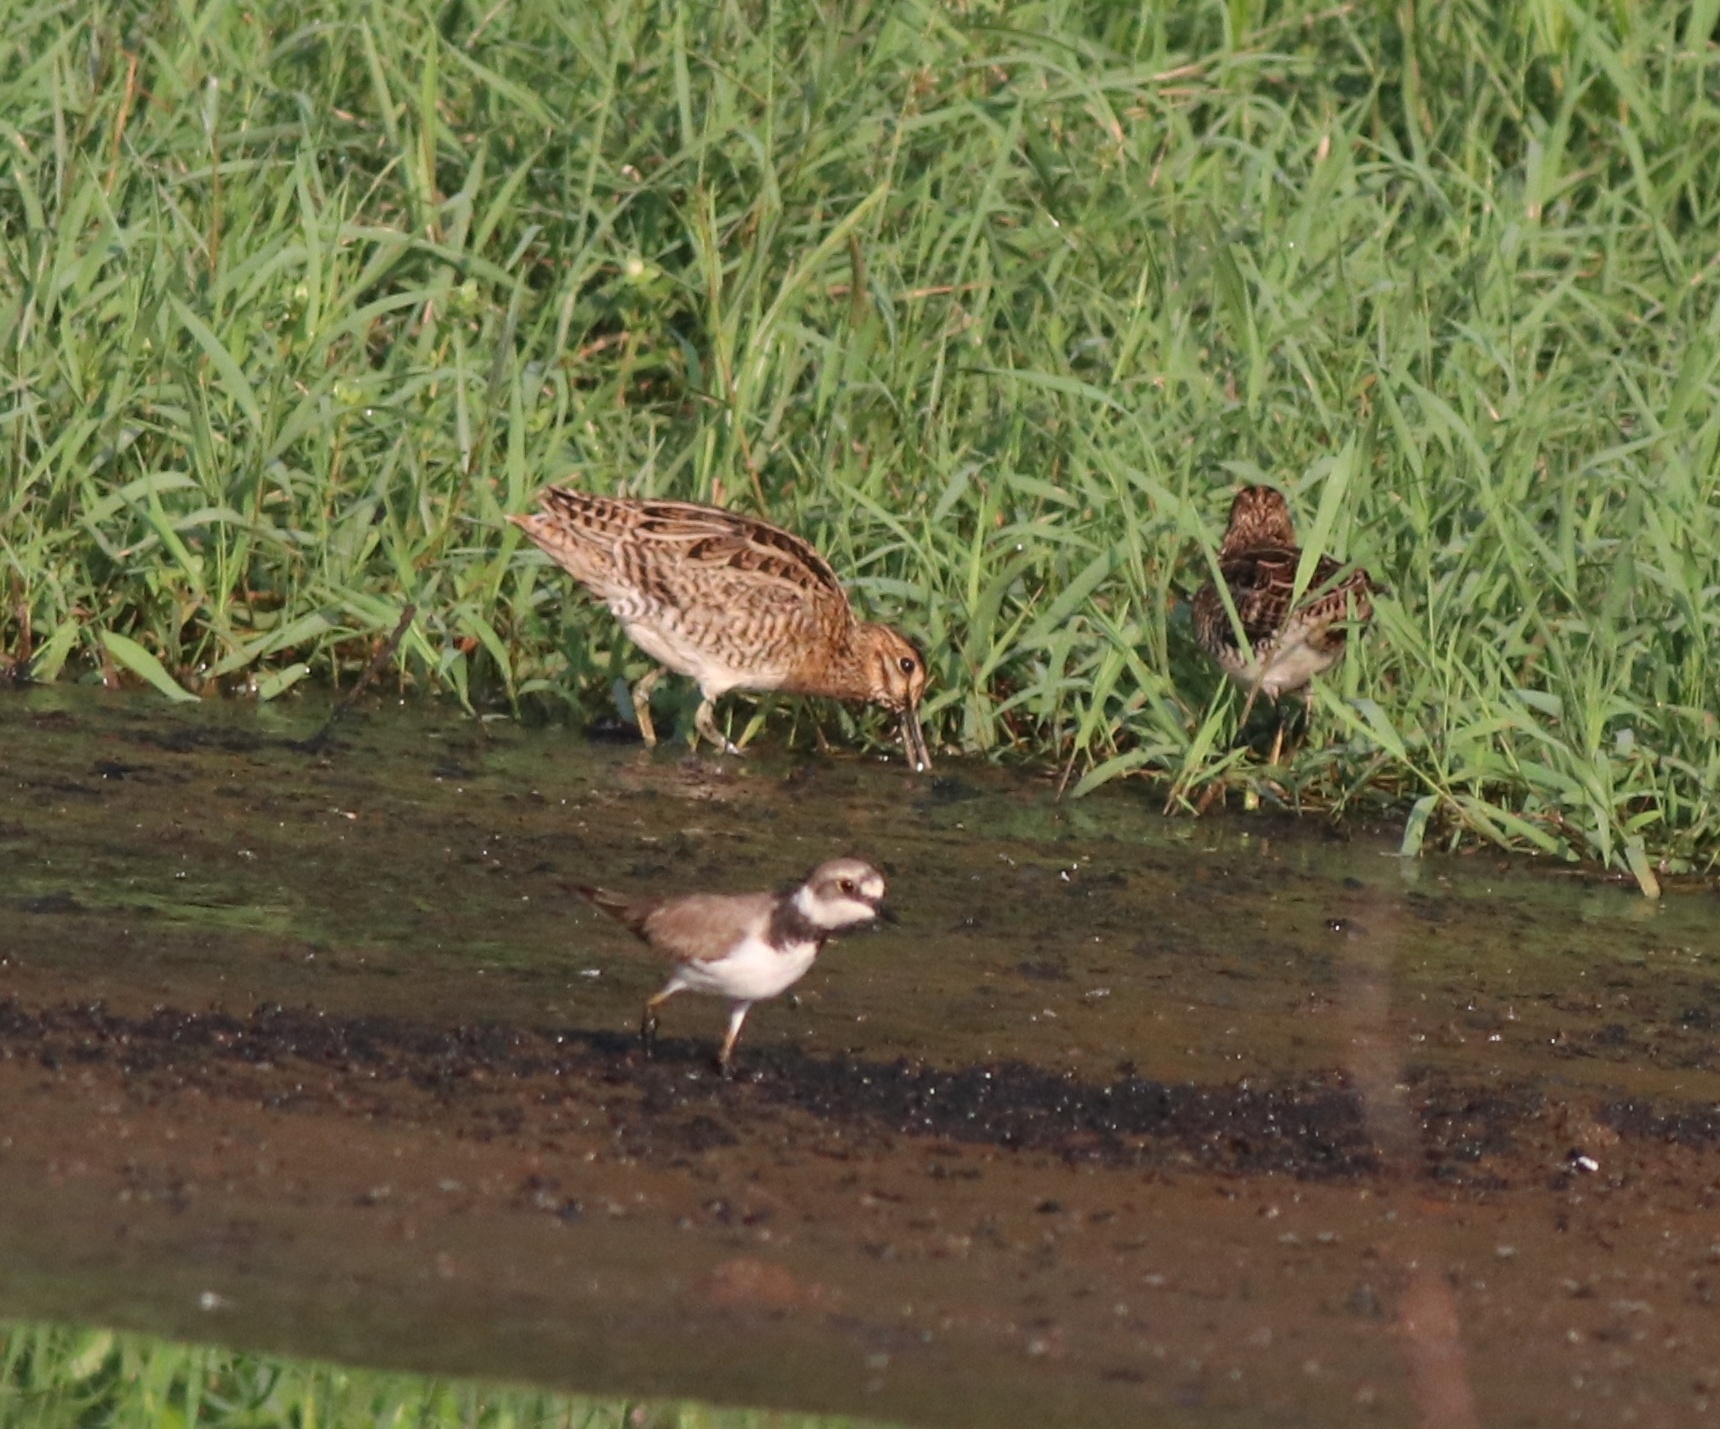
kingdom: Animalia
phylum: Chordata
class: Aves
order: Charadriiformes
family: Charadriidae
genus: Charadrius
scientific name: Charadrius dubius
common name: Little ringed plover
